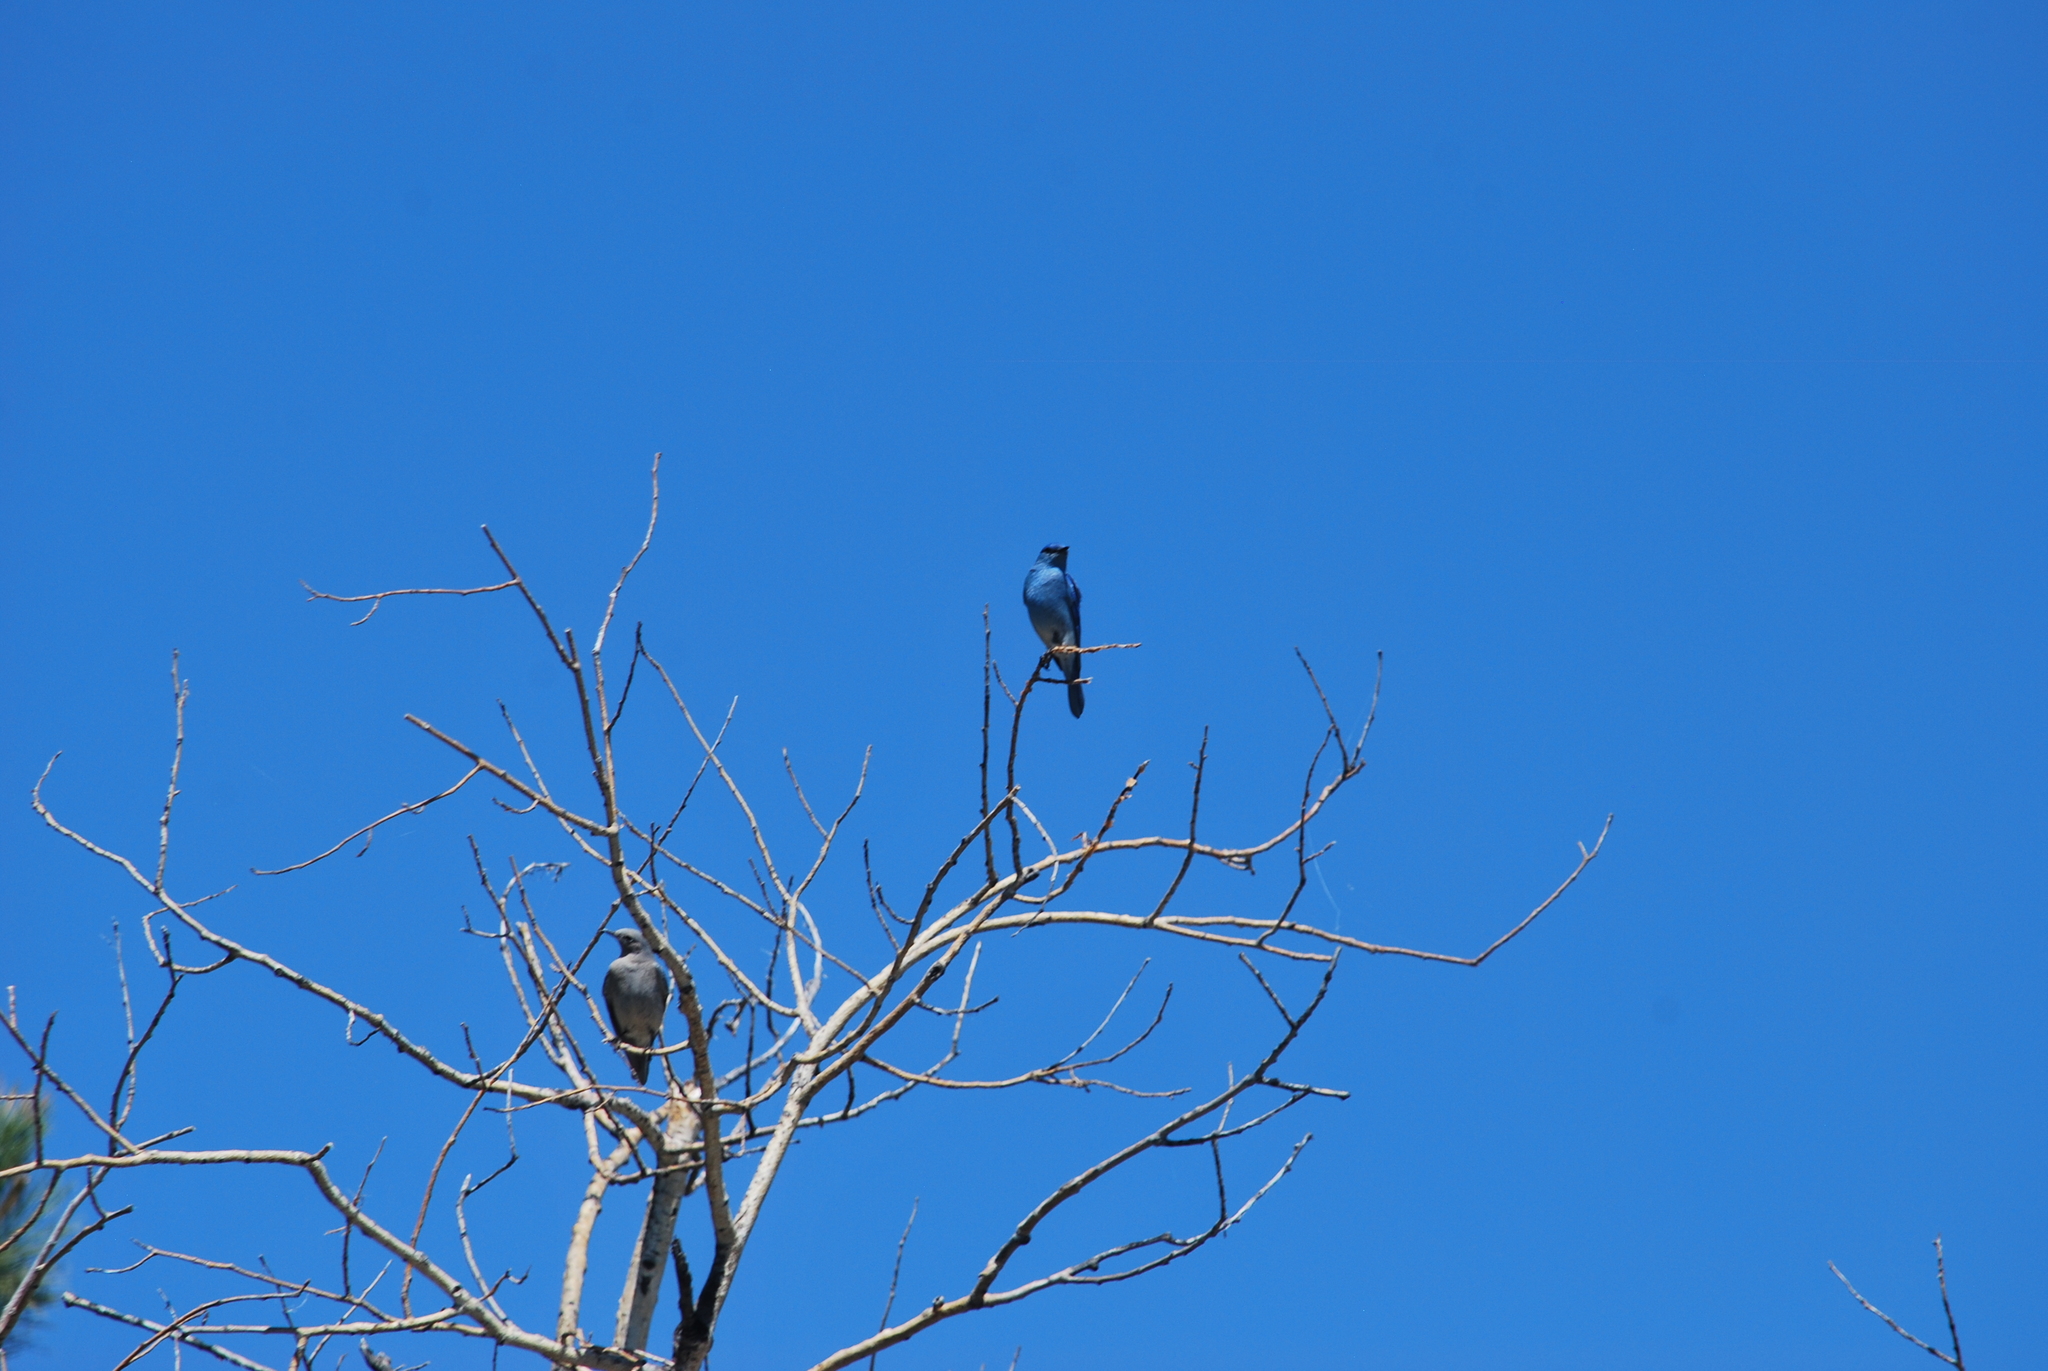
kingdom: Animalia
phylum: Chordata
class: Aves
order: Passeriformes
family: Turdidae
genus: Sialia
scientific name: Sialia currucoides
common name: Mountain bluebird
